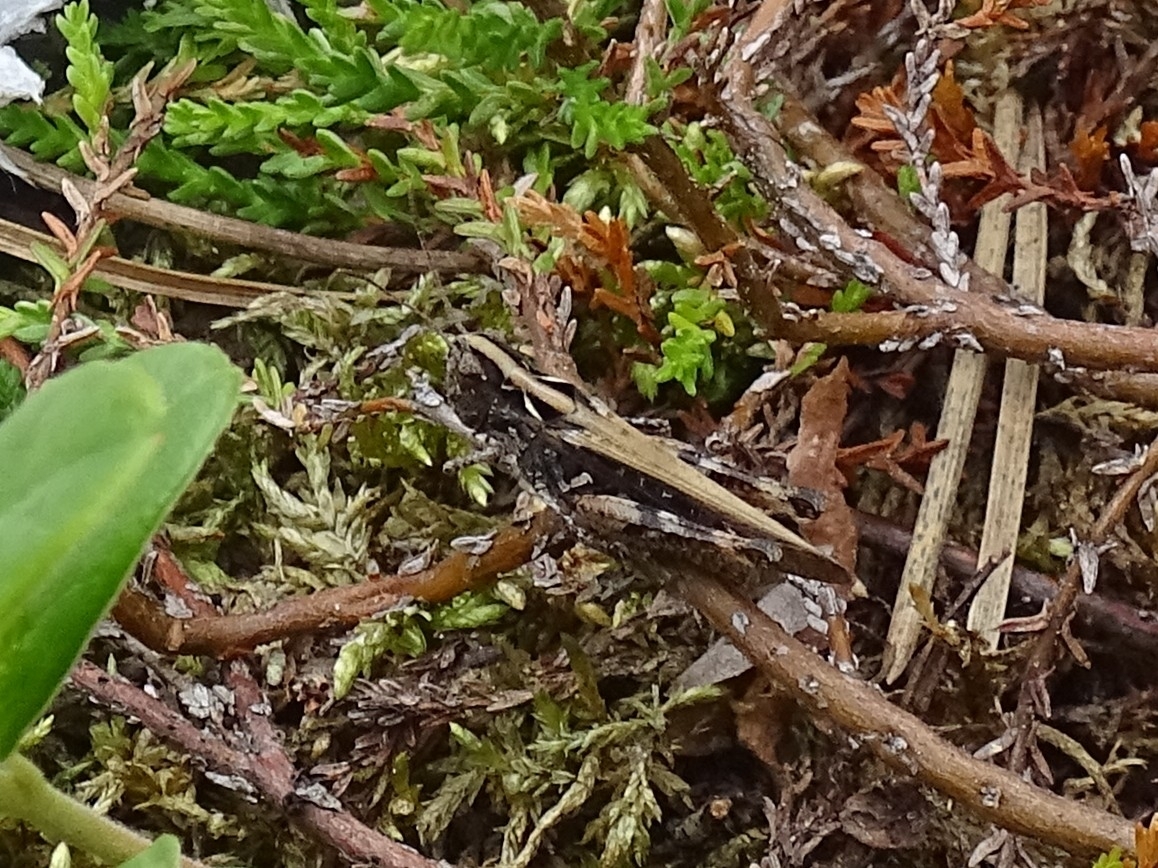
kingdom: Animalia
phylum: Arthropoda
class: Insecta
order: Orthoptera
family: Acrididae
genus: Myrmeleotettix
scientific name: Myrmeleotettix maculatus
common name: Mottled grasshopper
